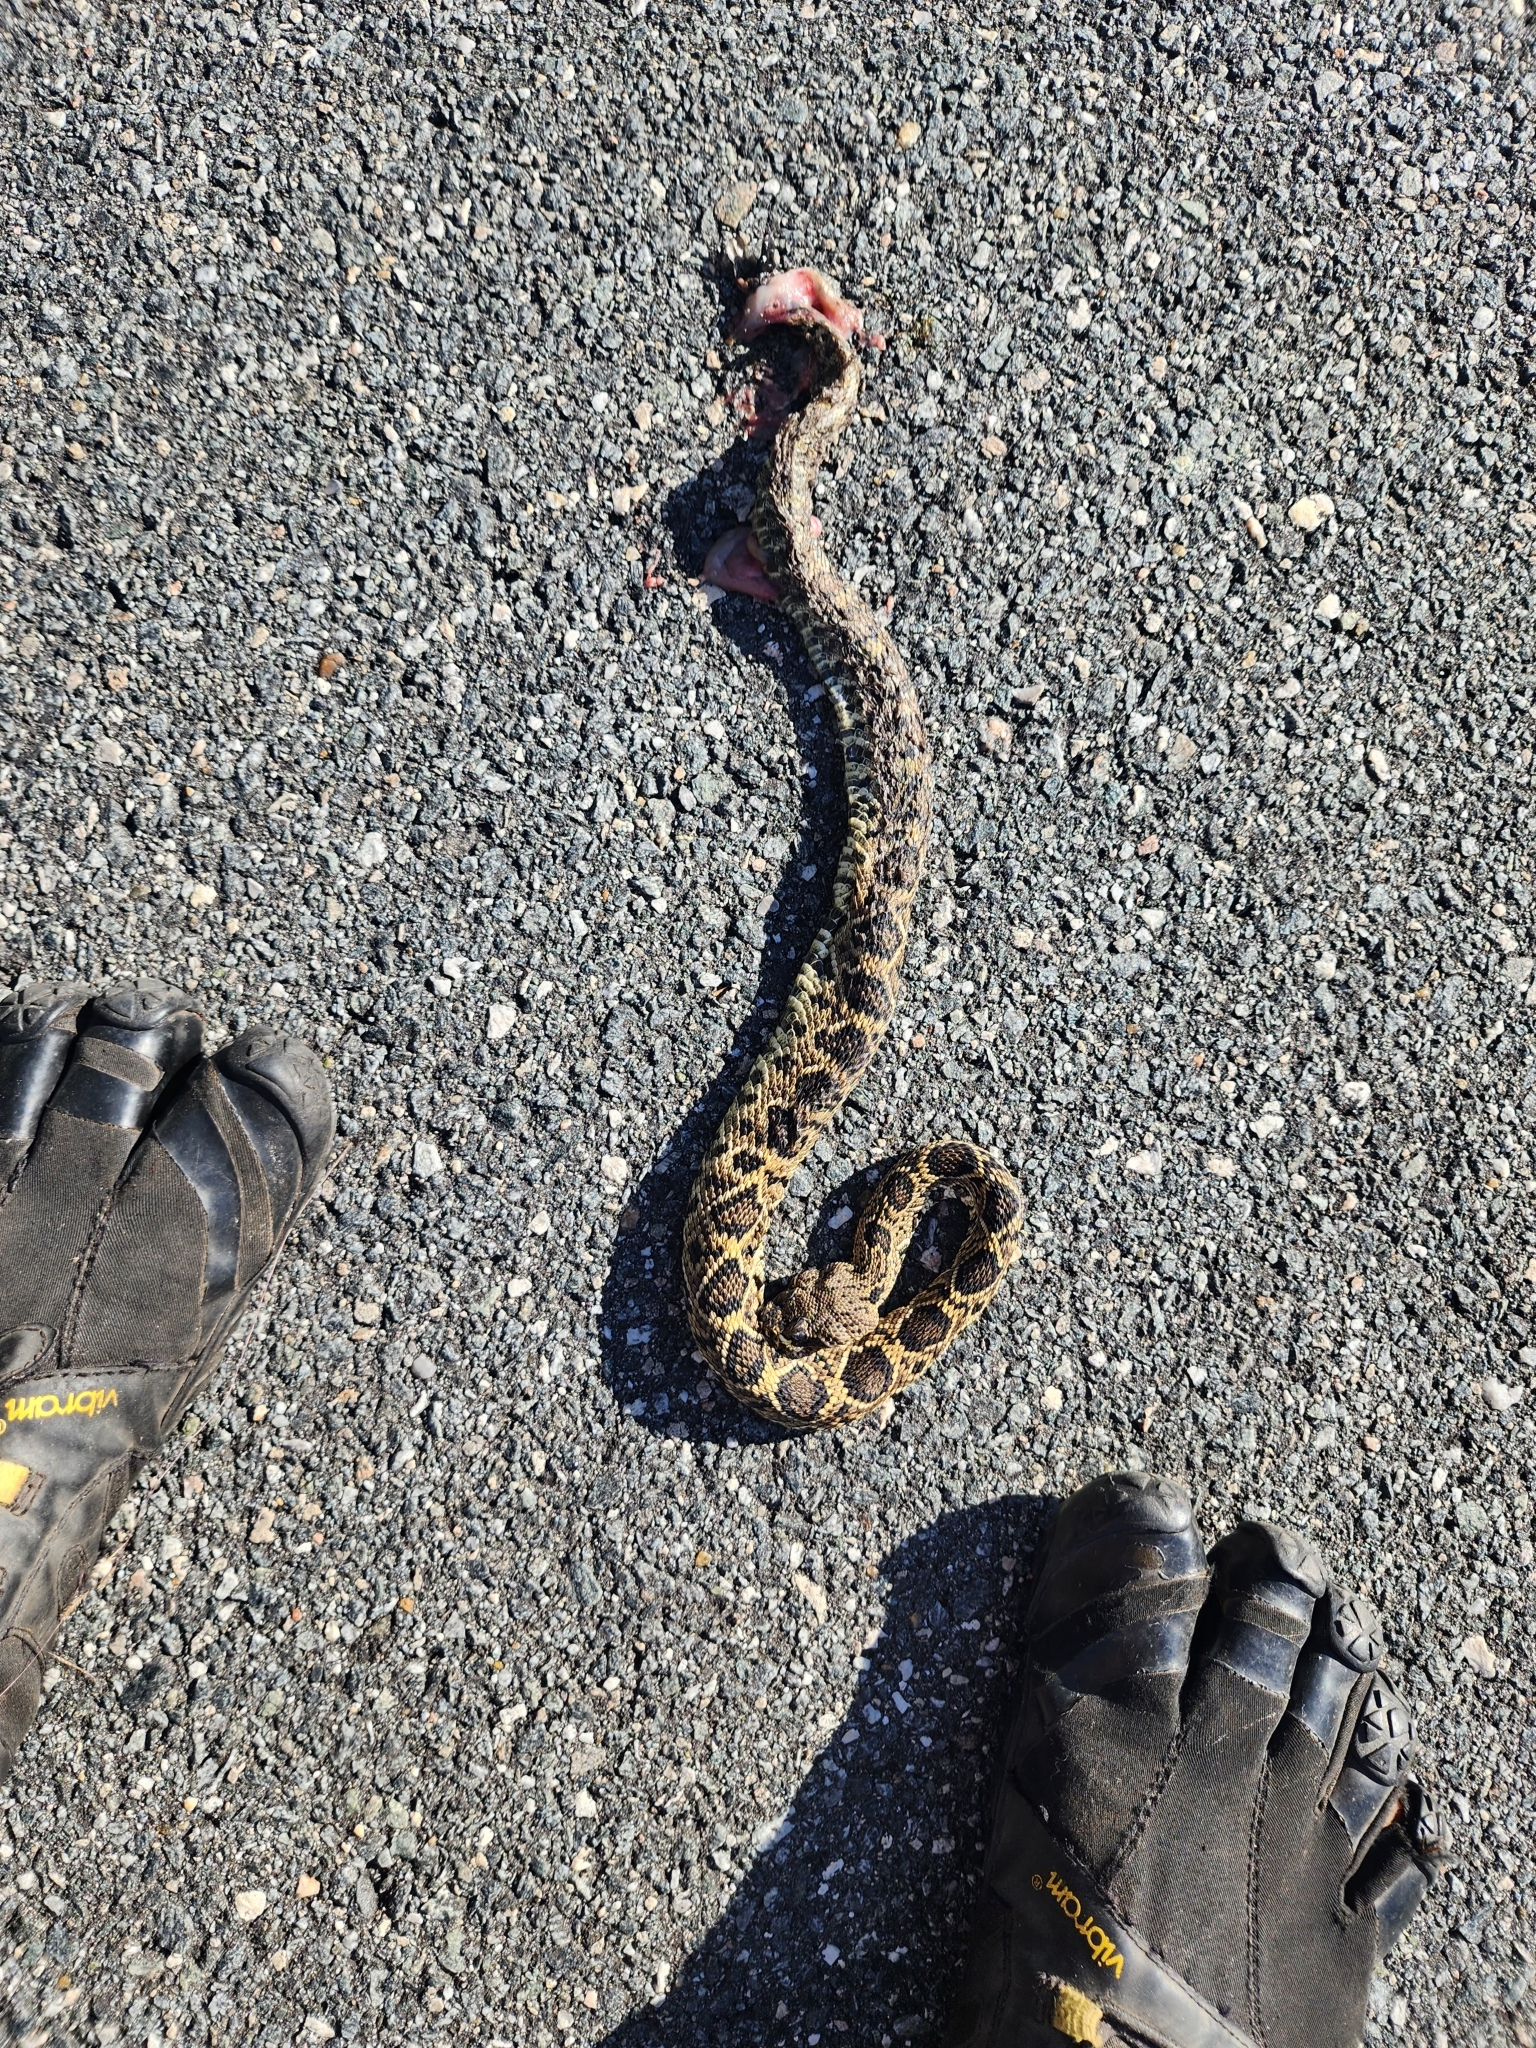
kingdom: Animalia
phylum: Chordata
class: Squamata
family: Viperidae
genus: Crotalus
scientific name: Crotalus adamanteus
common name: Eastern diamondback rattlesnake
